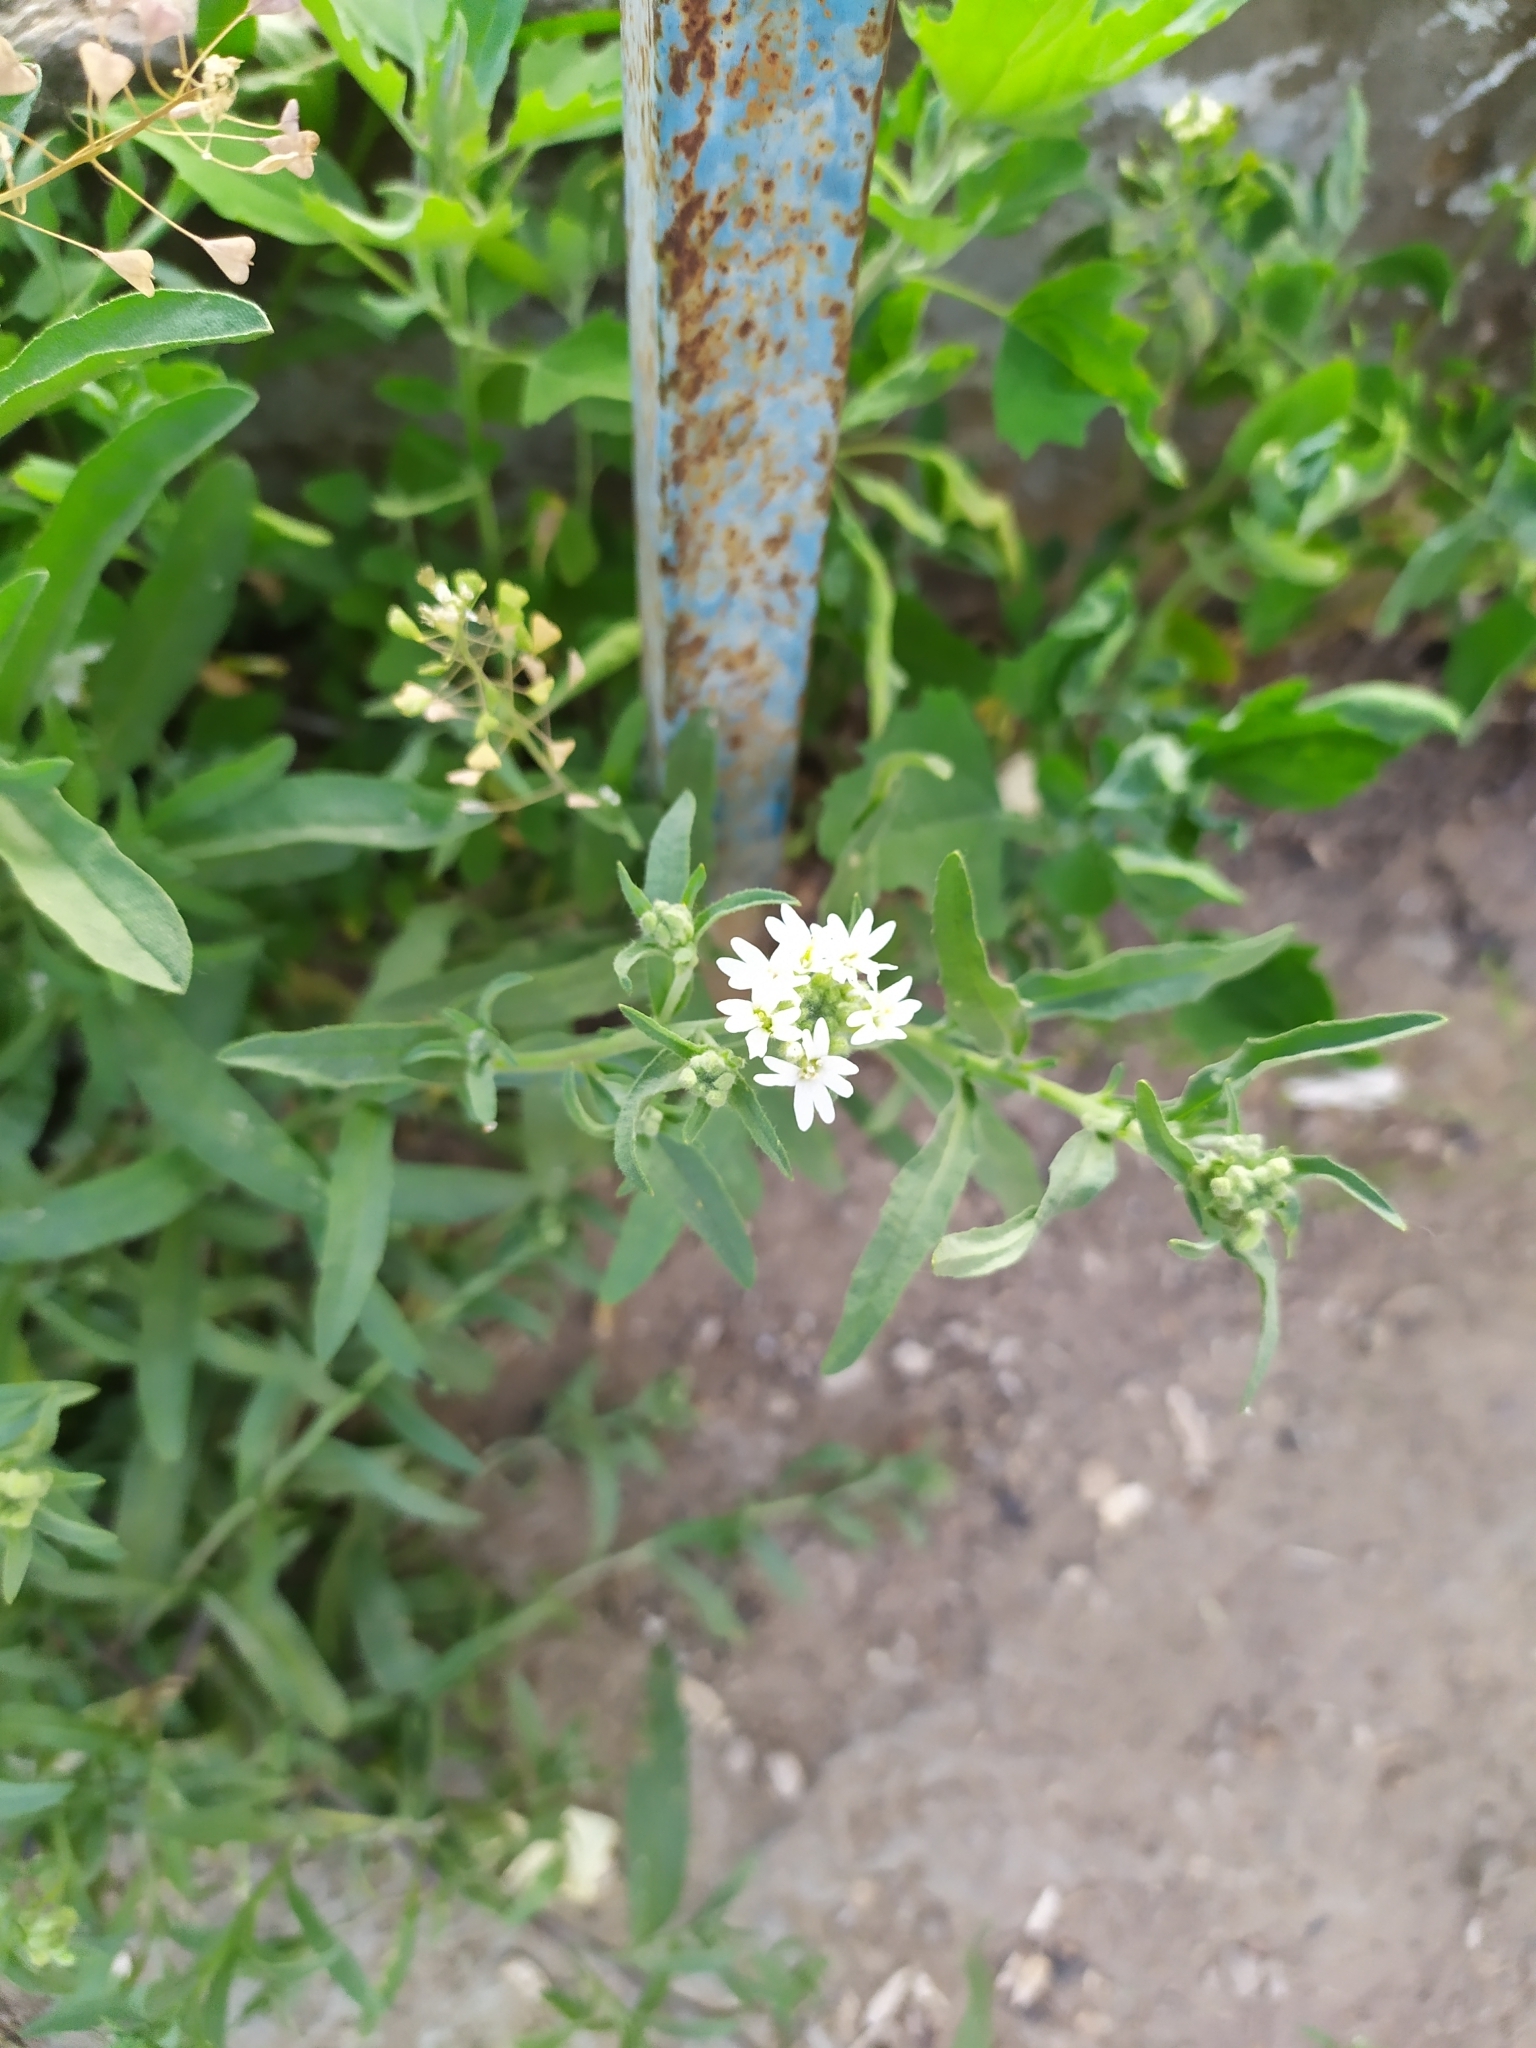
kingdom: Plantae
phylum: Tracheophyta
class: Magnoliopsida
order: Brassicales
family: Brassicaceae
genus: Berteroa
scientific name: Berteroa incana
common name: Hoary alison
